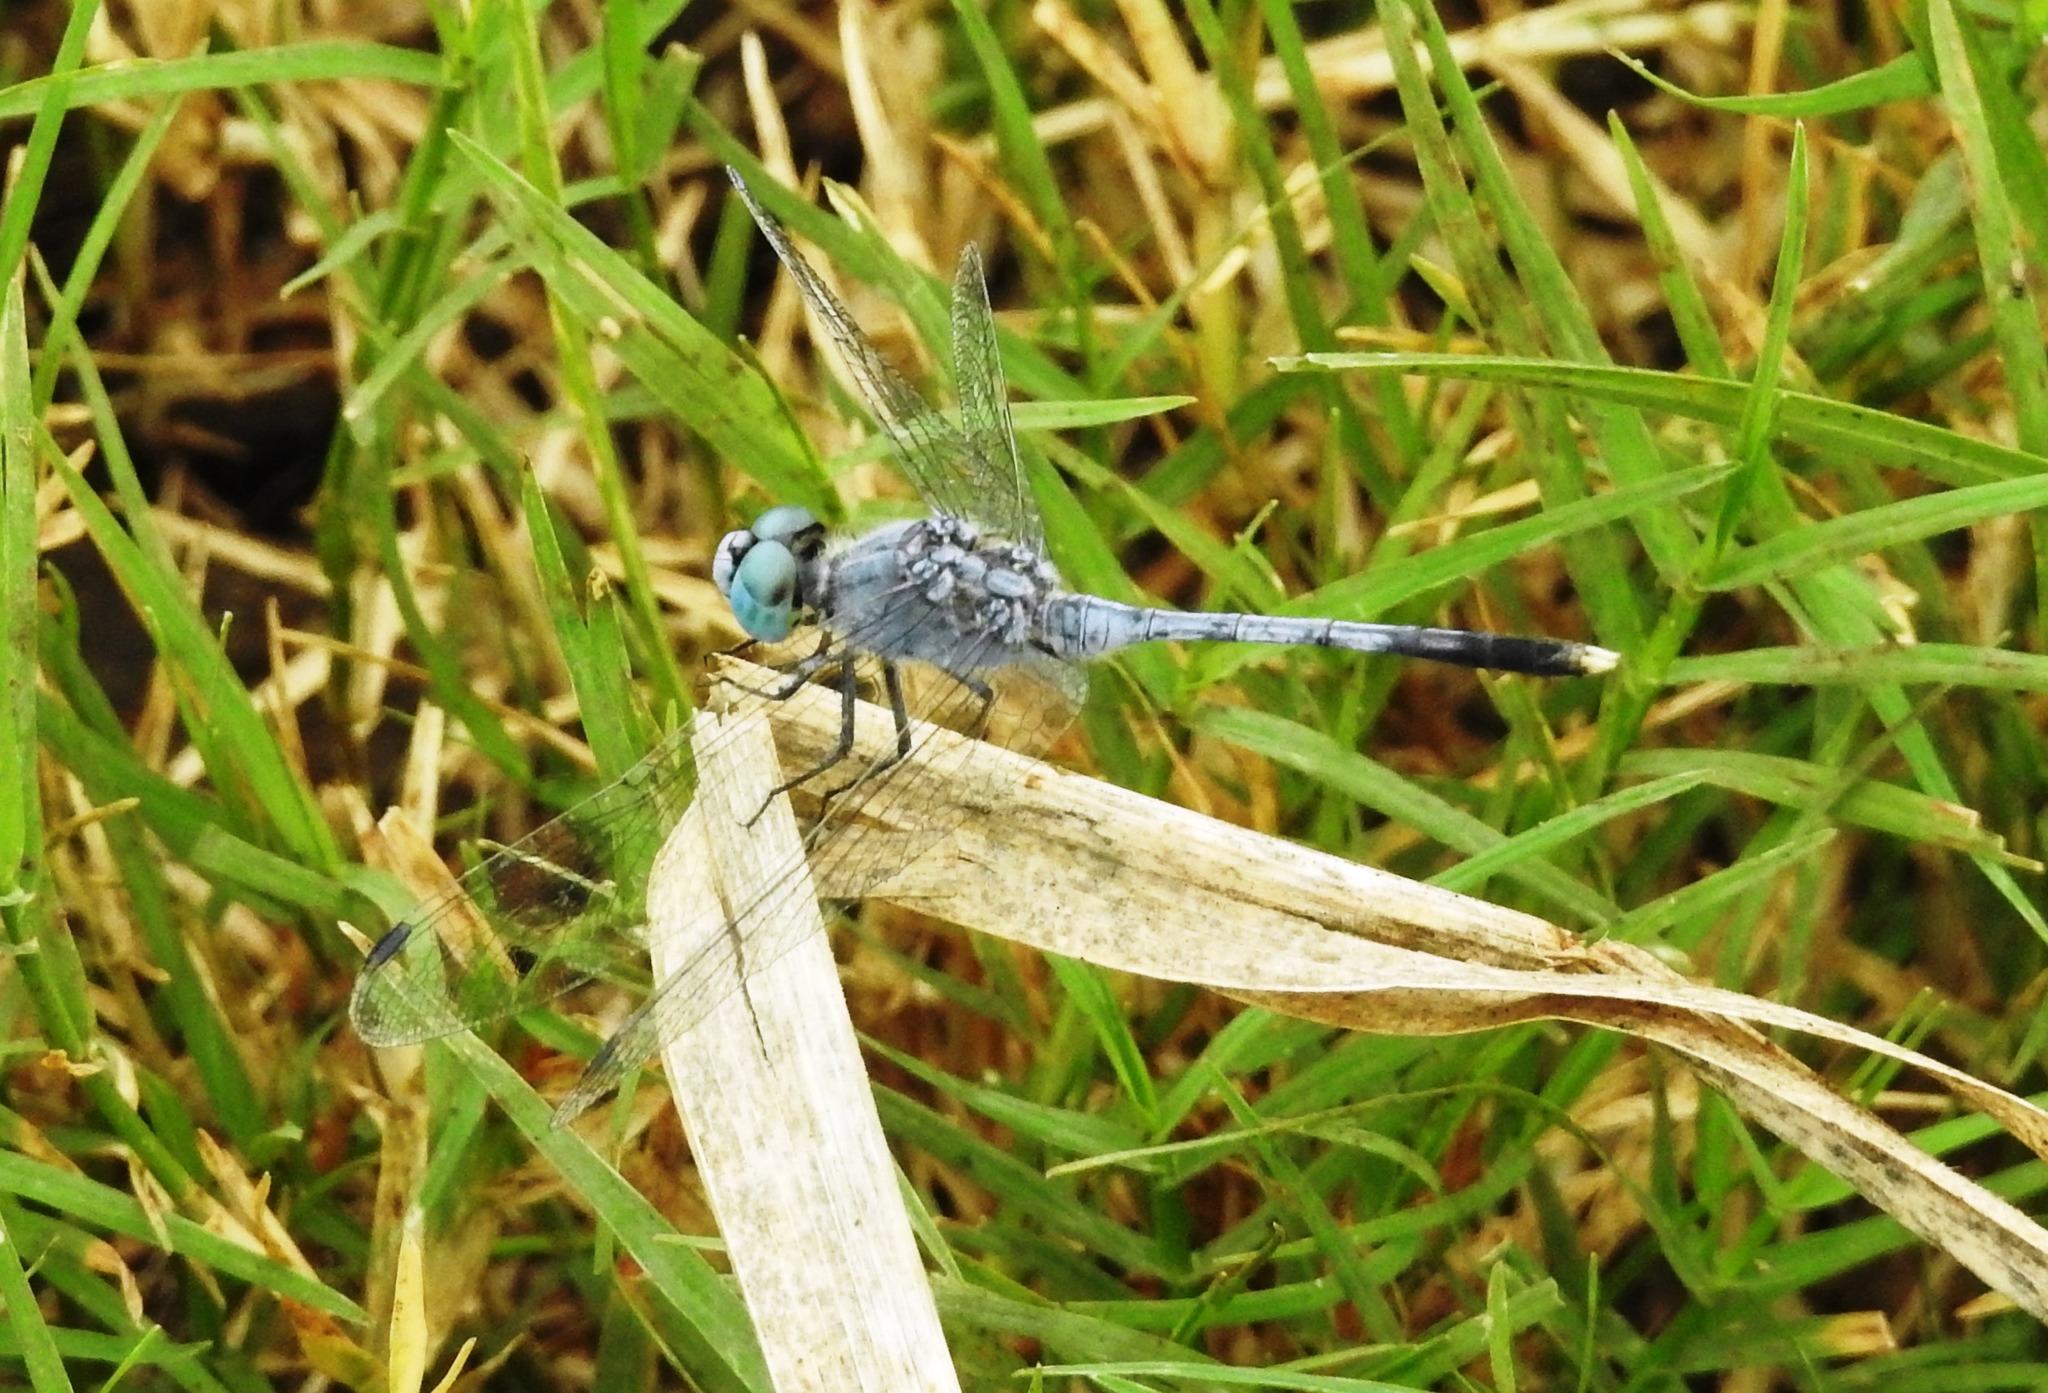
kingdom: Animalia
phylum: Arthropoda
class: Insecta
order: Odonata
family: Libellulidae
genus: Diplacodes
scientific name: Diplacodes trivialis
